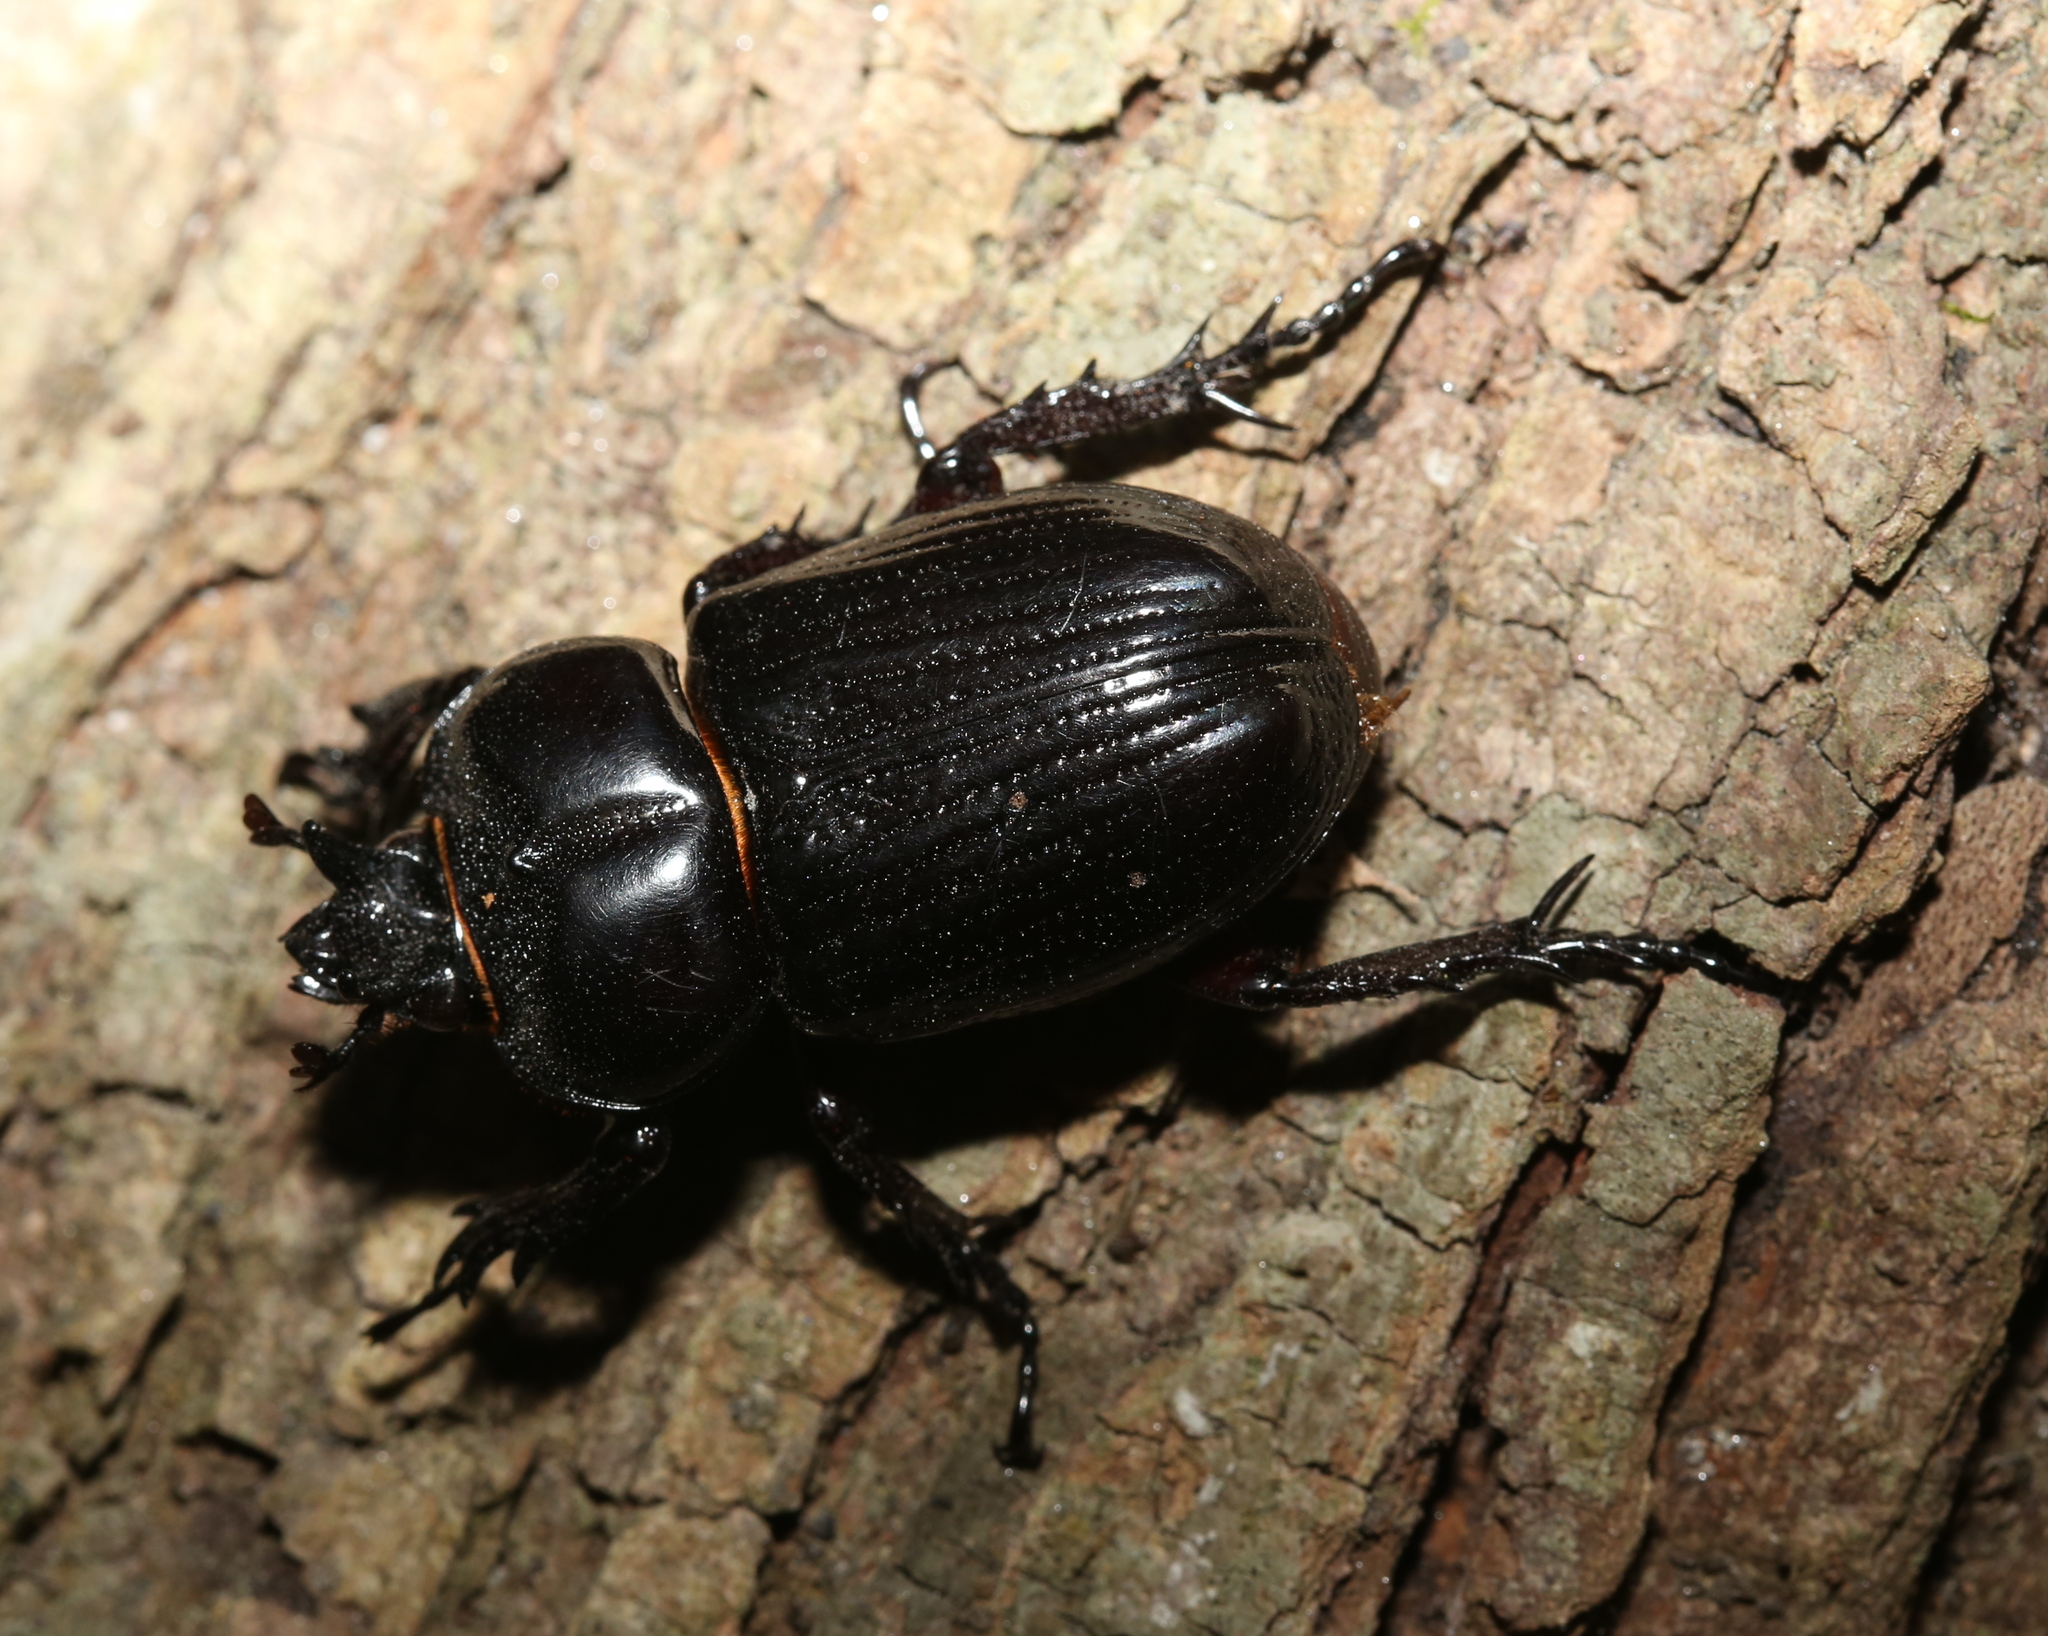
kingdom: Animalia
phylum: Arthropoda
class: Insecta
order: Coleoptera
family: Scarabaeidae
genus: Phileurus
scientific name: Phileurus truncatus
